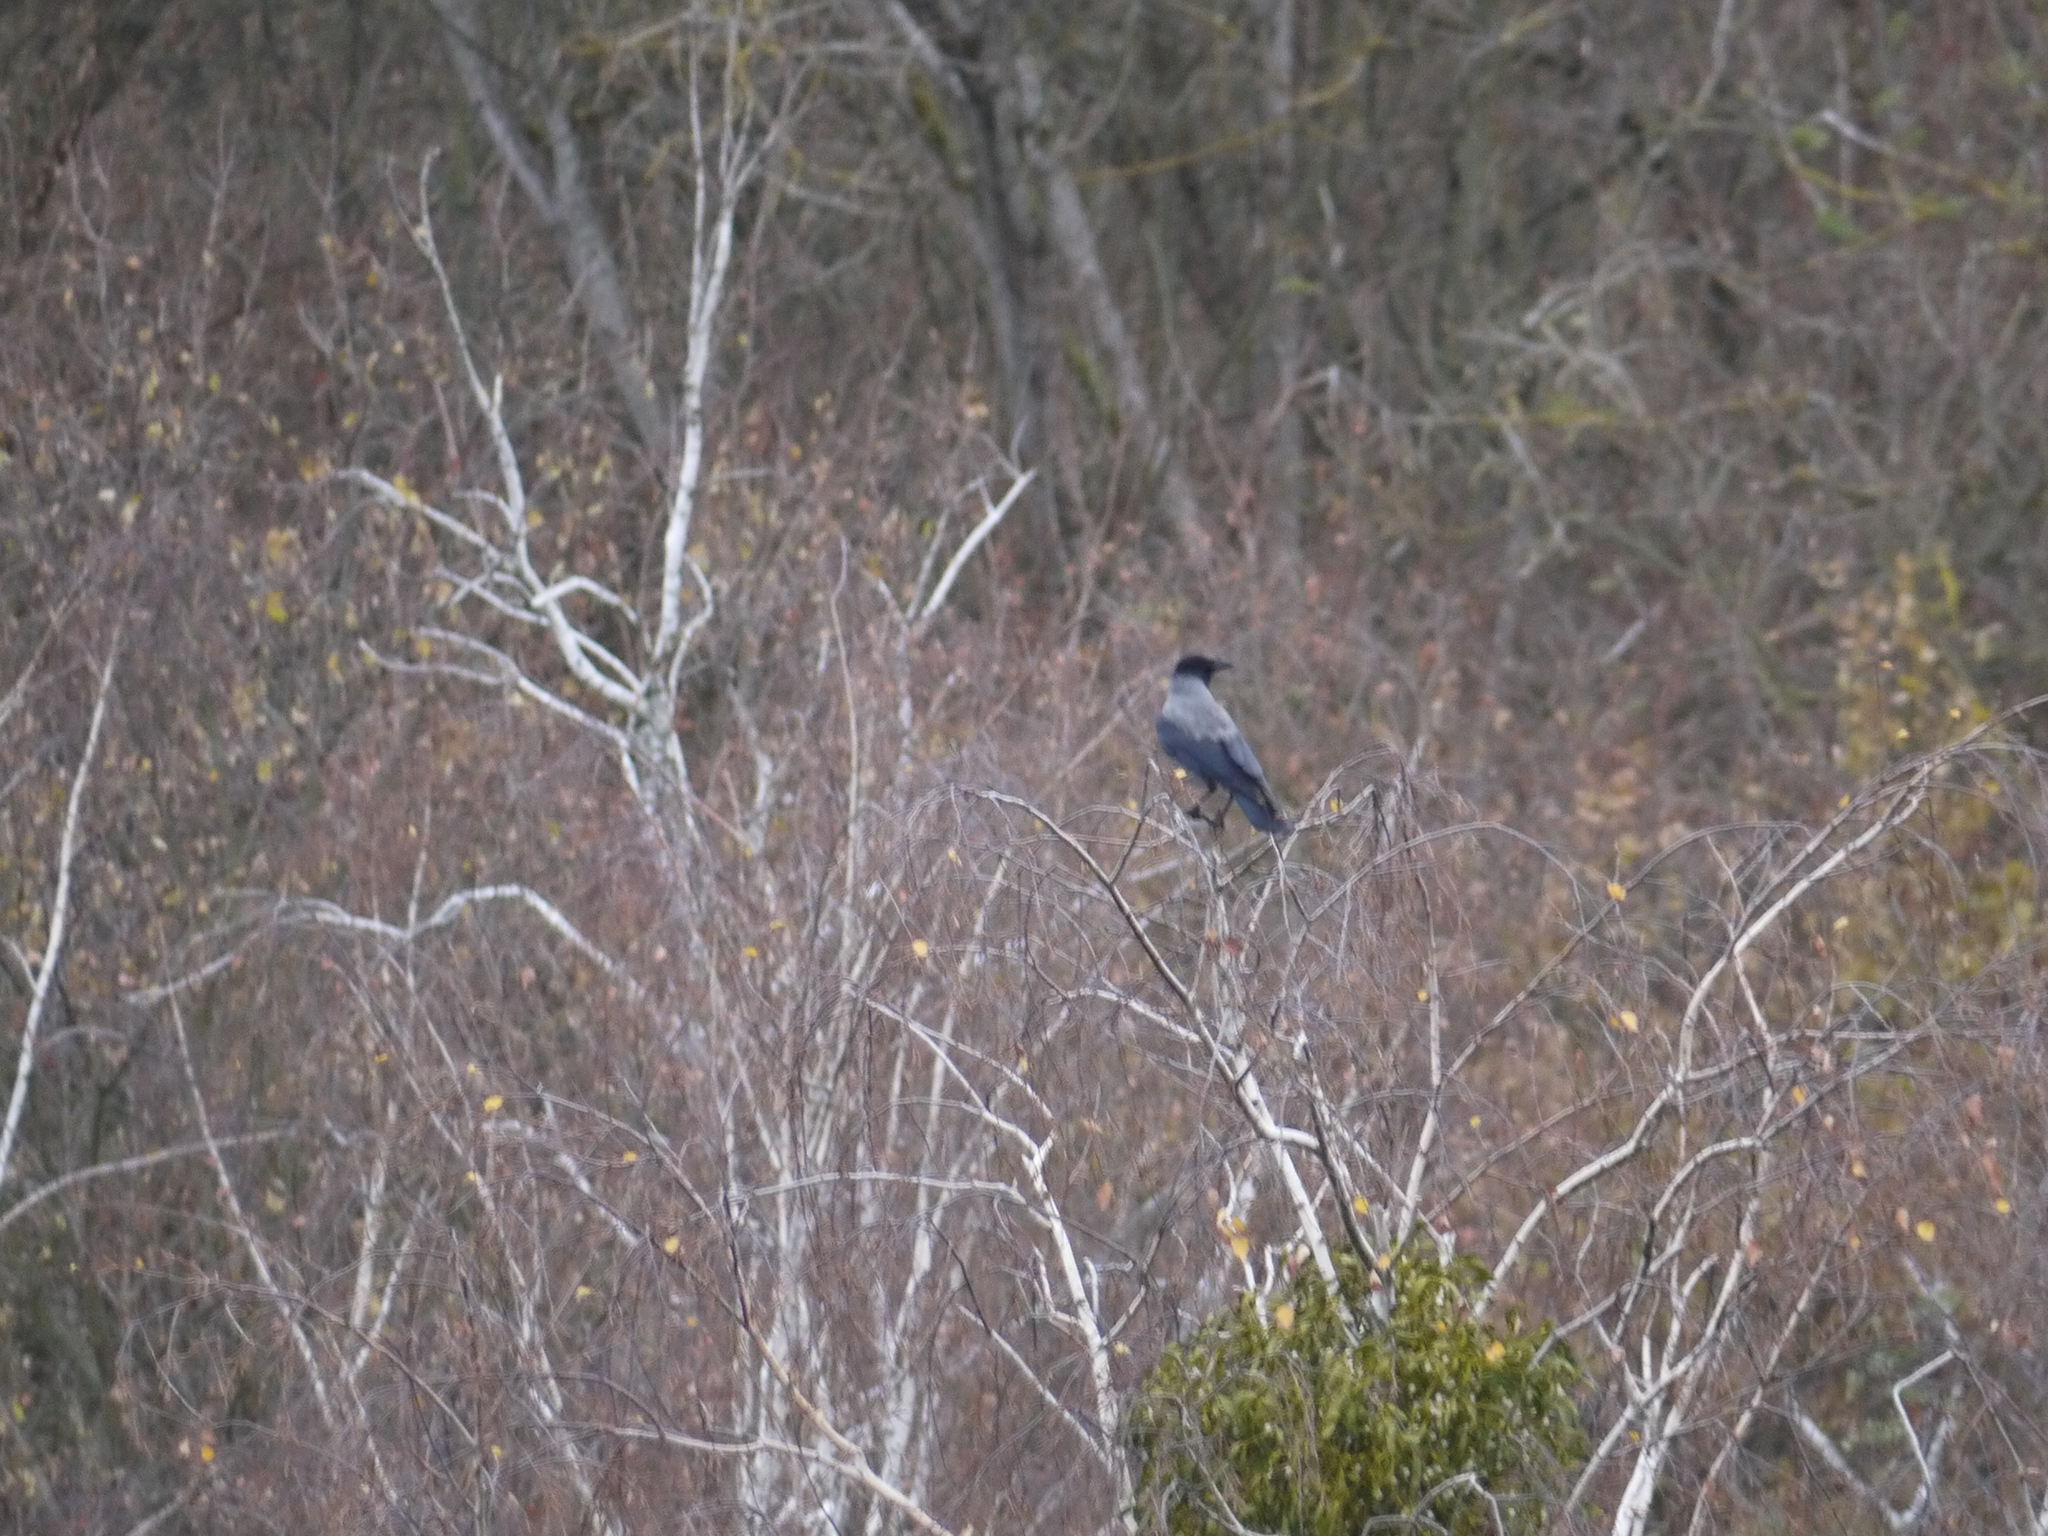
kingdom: Animalia
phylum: Chordata
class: Aves
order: Passeriformes
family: Corvidae
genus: Corvus
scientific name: Corvus cornix
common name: Hooded crow
